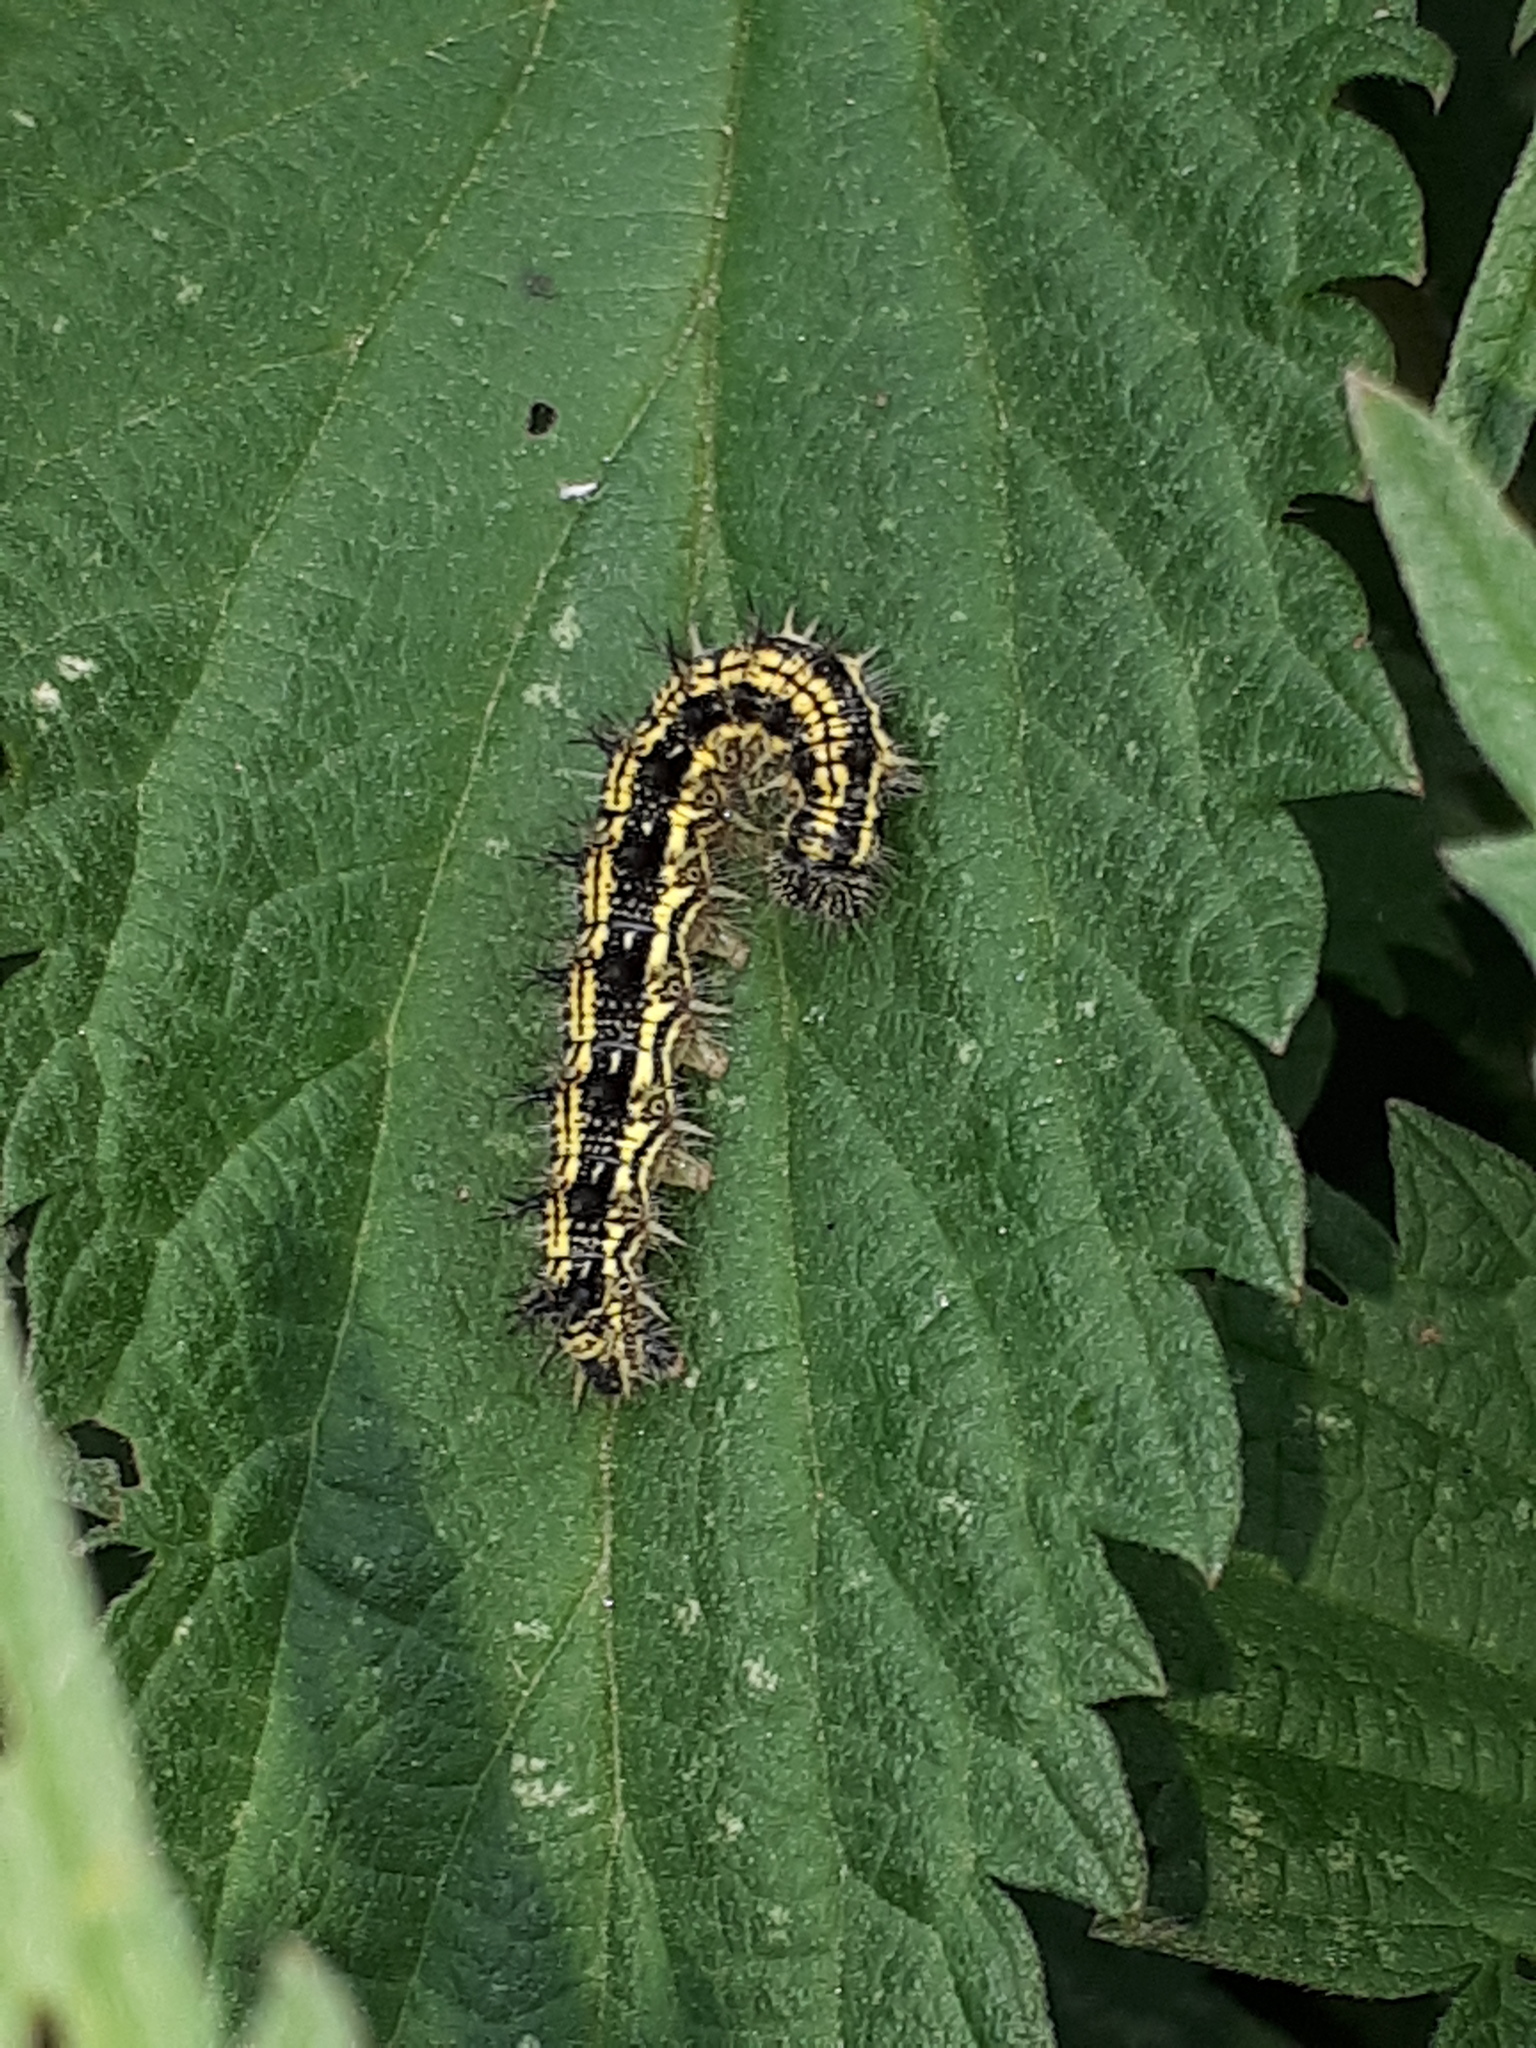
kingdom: Animalia
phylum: Arthropoda
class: Insecta
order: Lepidoptera
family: Nymphalidae
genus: Aglais
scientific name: Aglais urticae
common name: Small tortoiseshell
